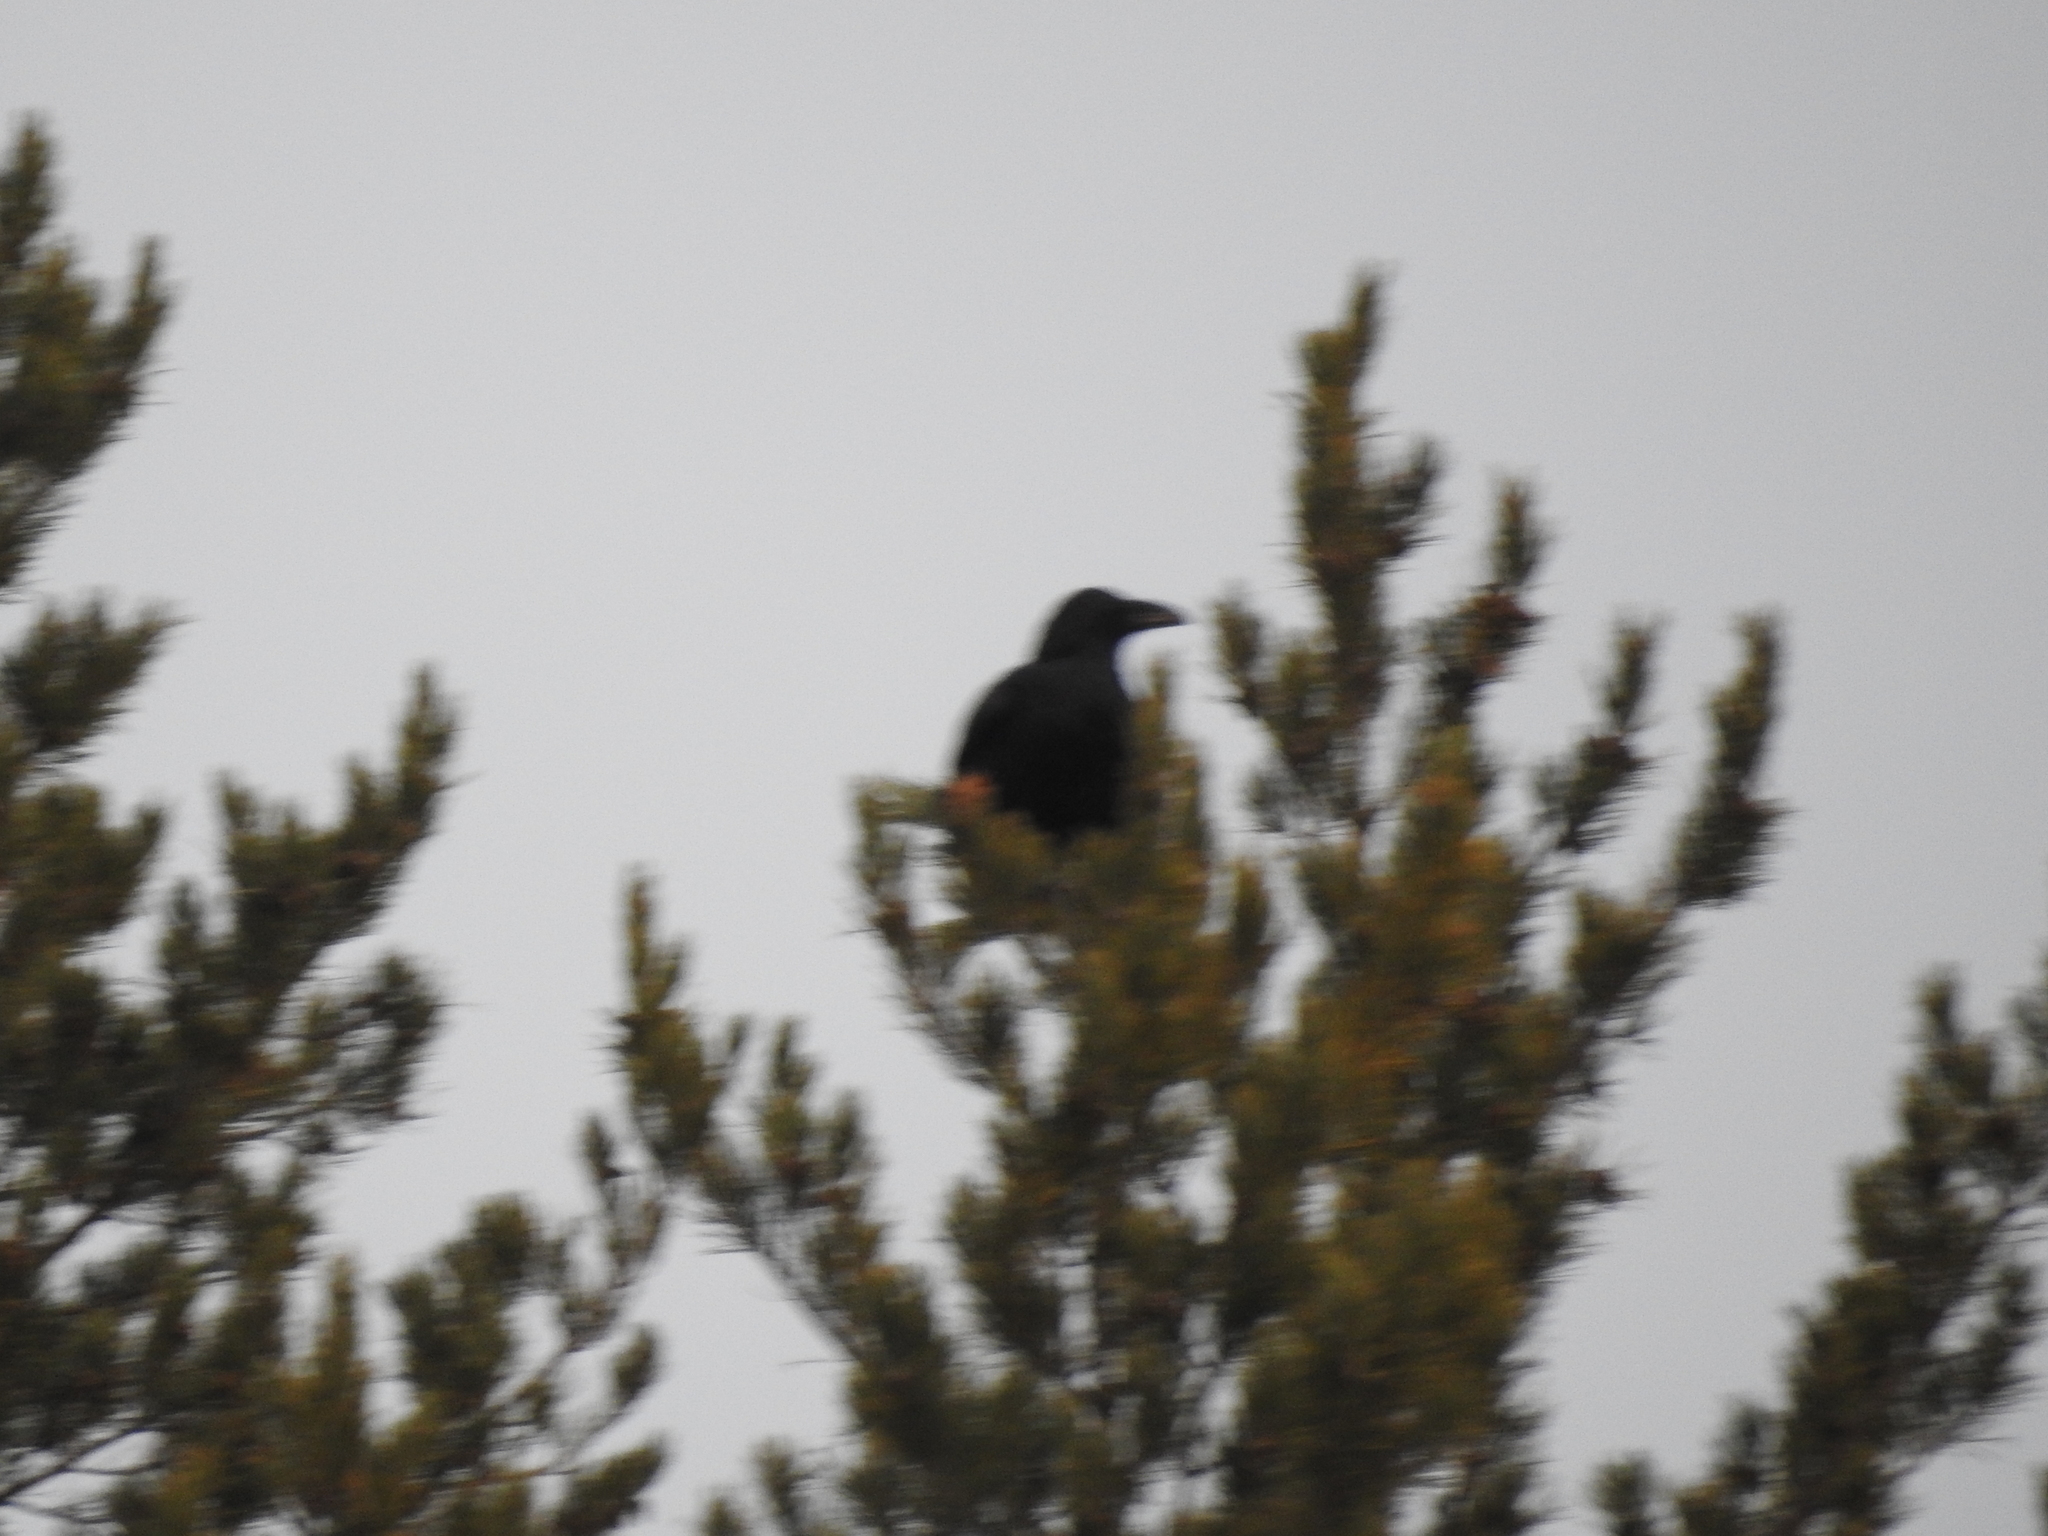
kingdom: Animalia
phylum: Chordata
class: Aves
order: Passeriformes
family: Corvidae
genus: Corvus
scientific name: Corvus corax
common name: Common raven
